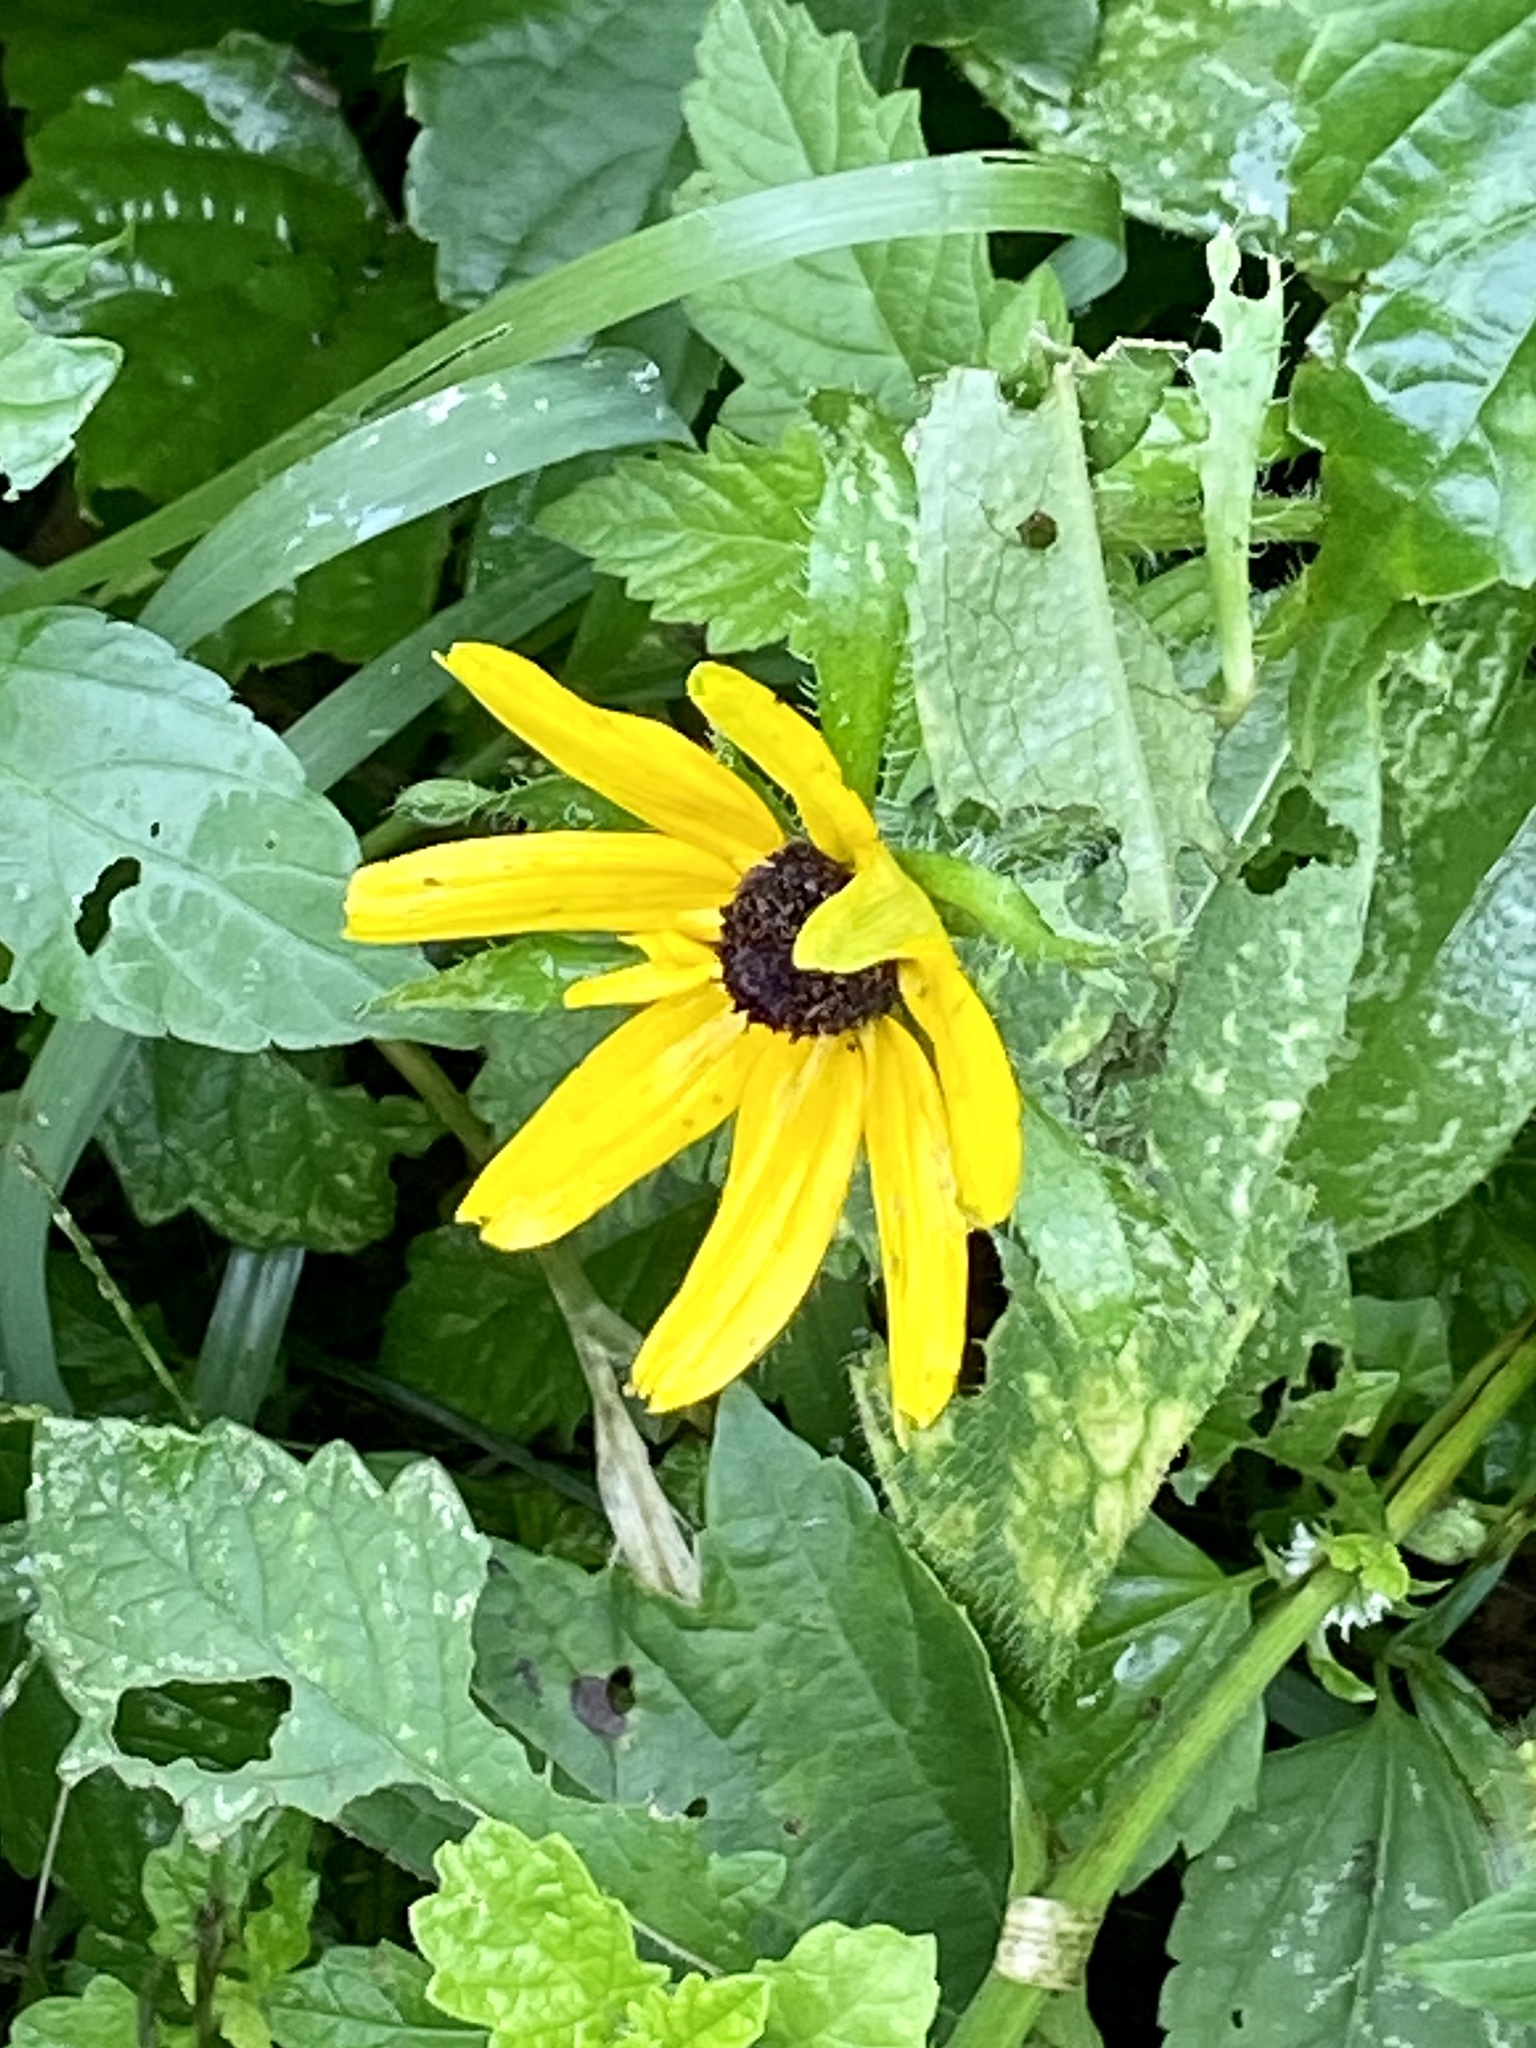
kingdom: Plantae
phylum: Tracheophyta
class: Magnoliopsida
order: Asterales
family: Asteraceae
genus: Rudbeckia
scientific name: Rudbeckia hirta
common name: Black-eyed-susan
